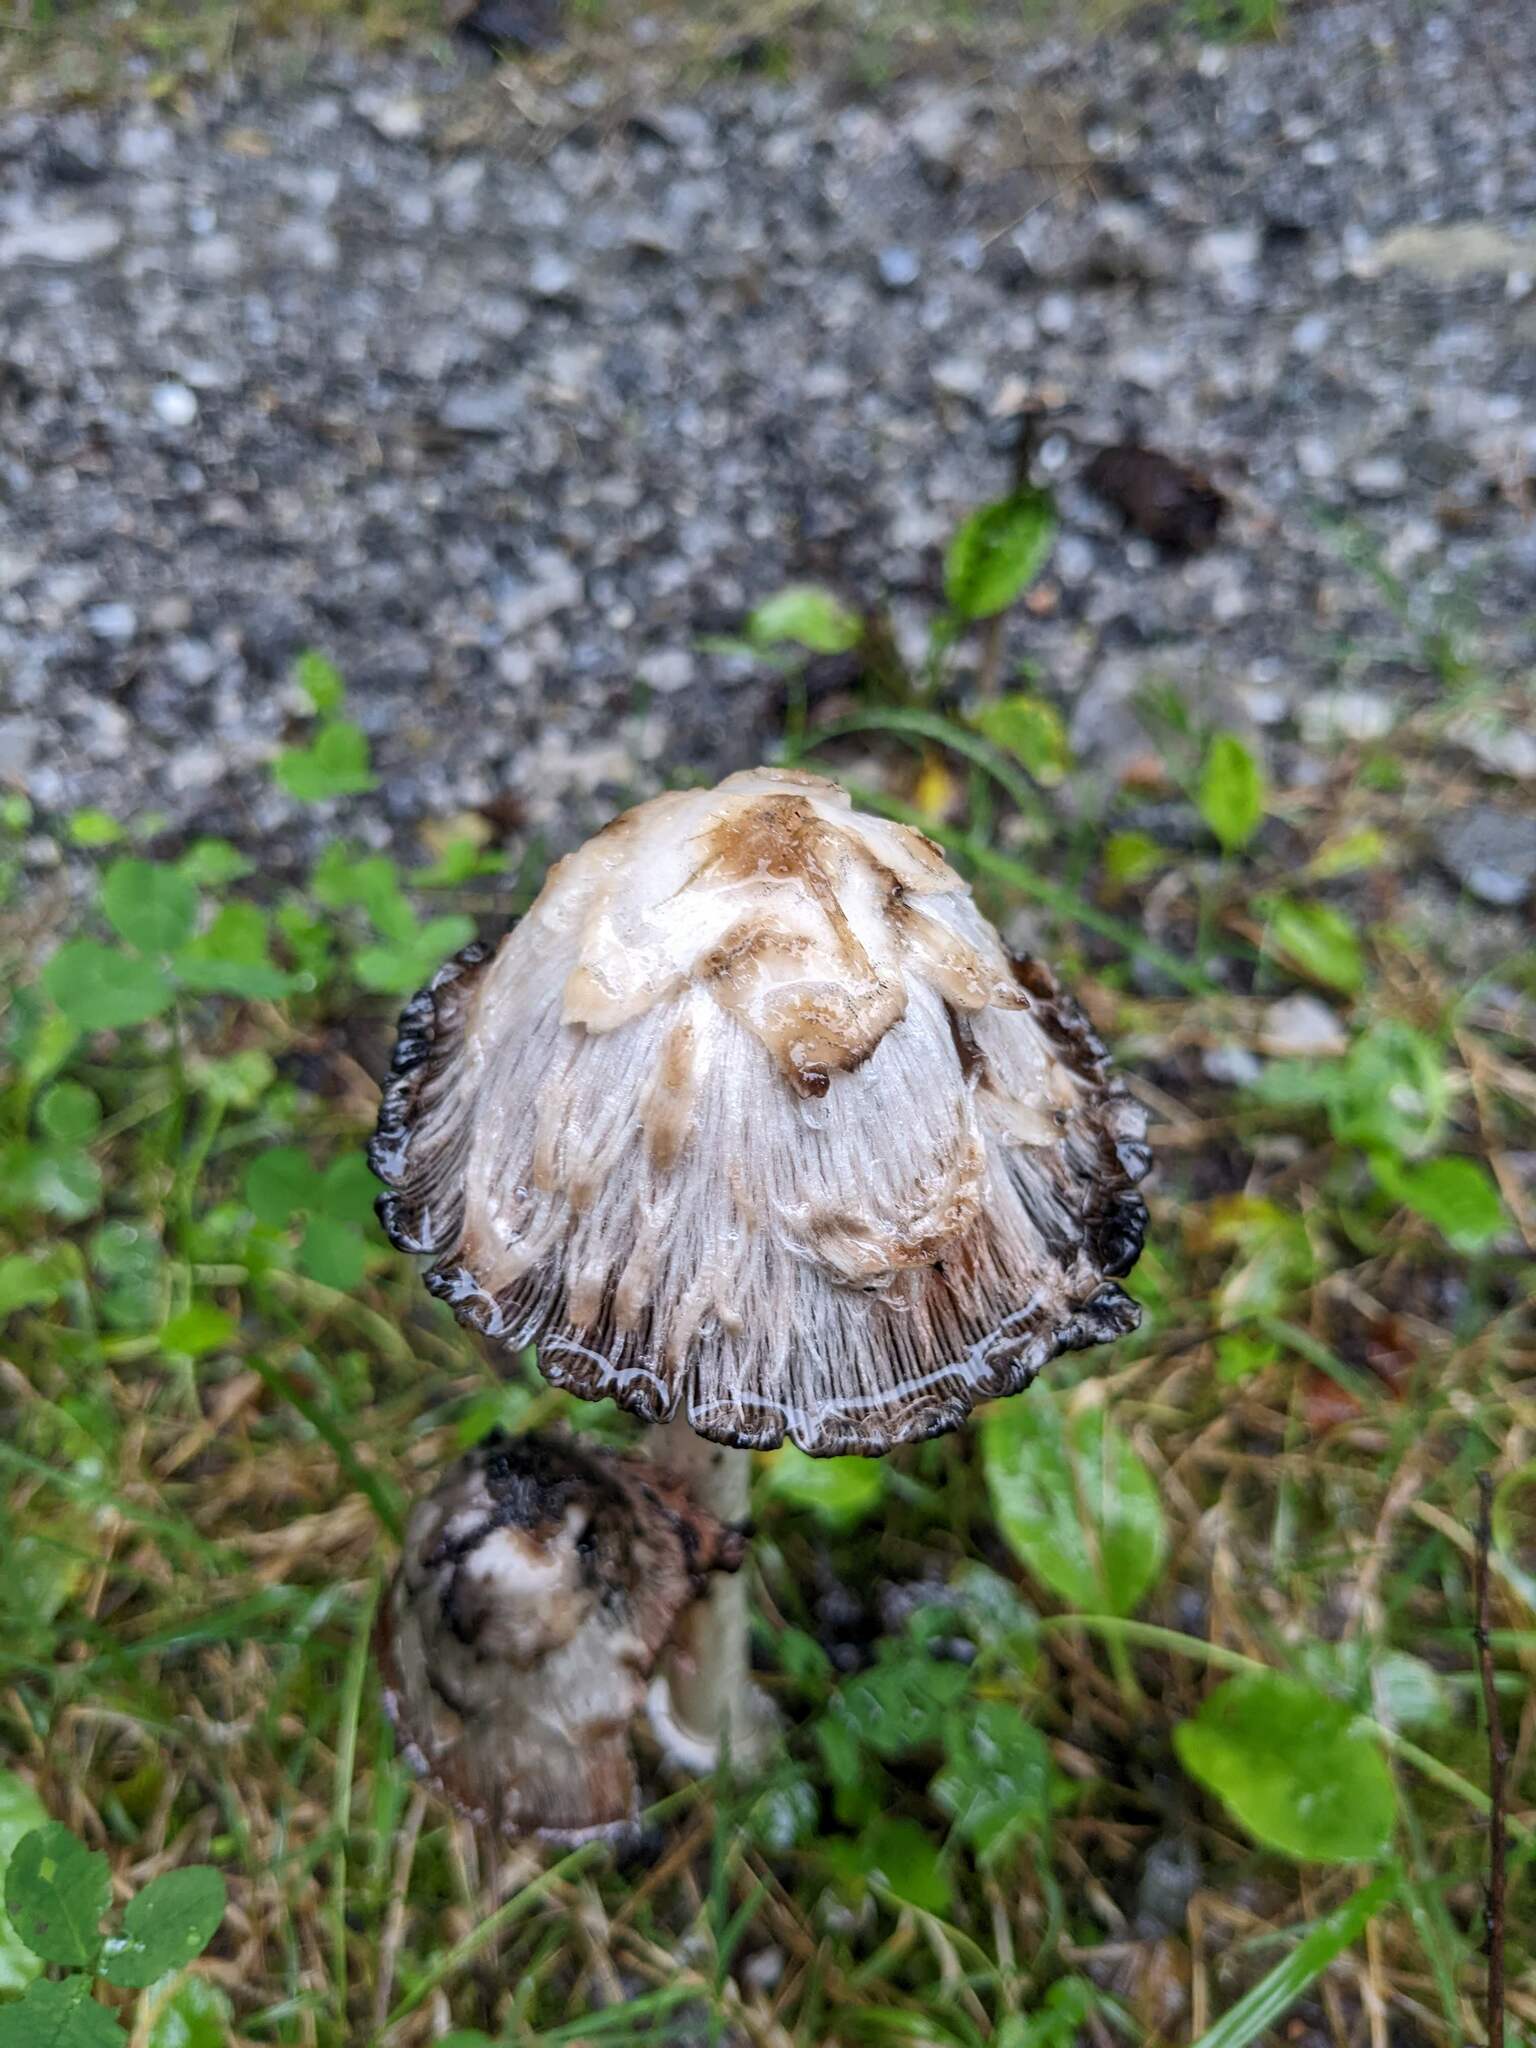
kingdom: Fungi
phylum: Basidiomycota
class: Agaricomycetes
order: Agaricales
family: Agaricaceae
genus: Coprinus
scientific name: Coprinus comatus
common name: Lawyer's wig
